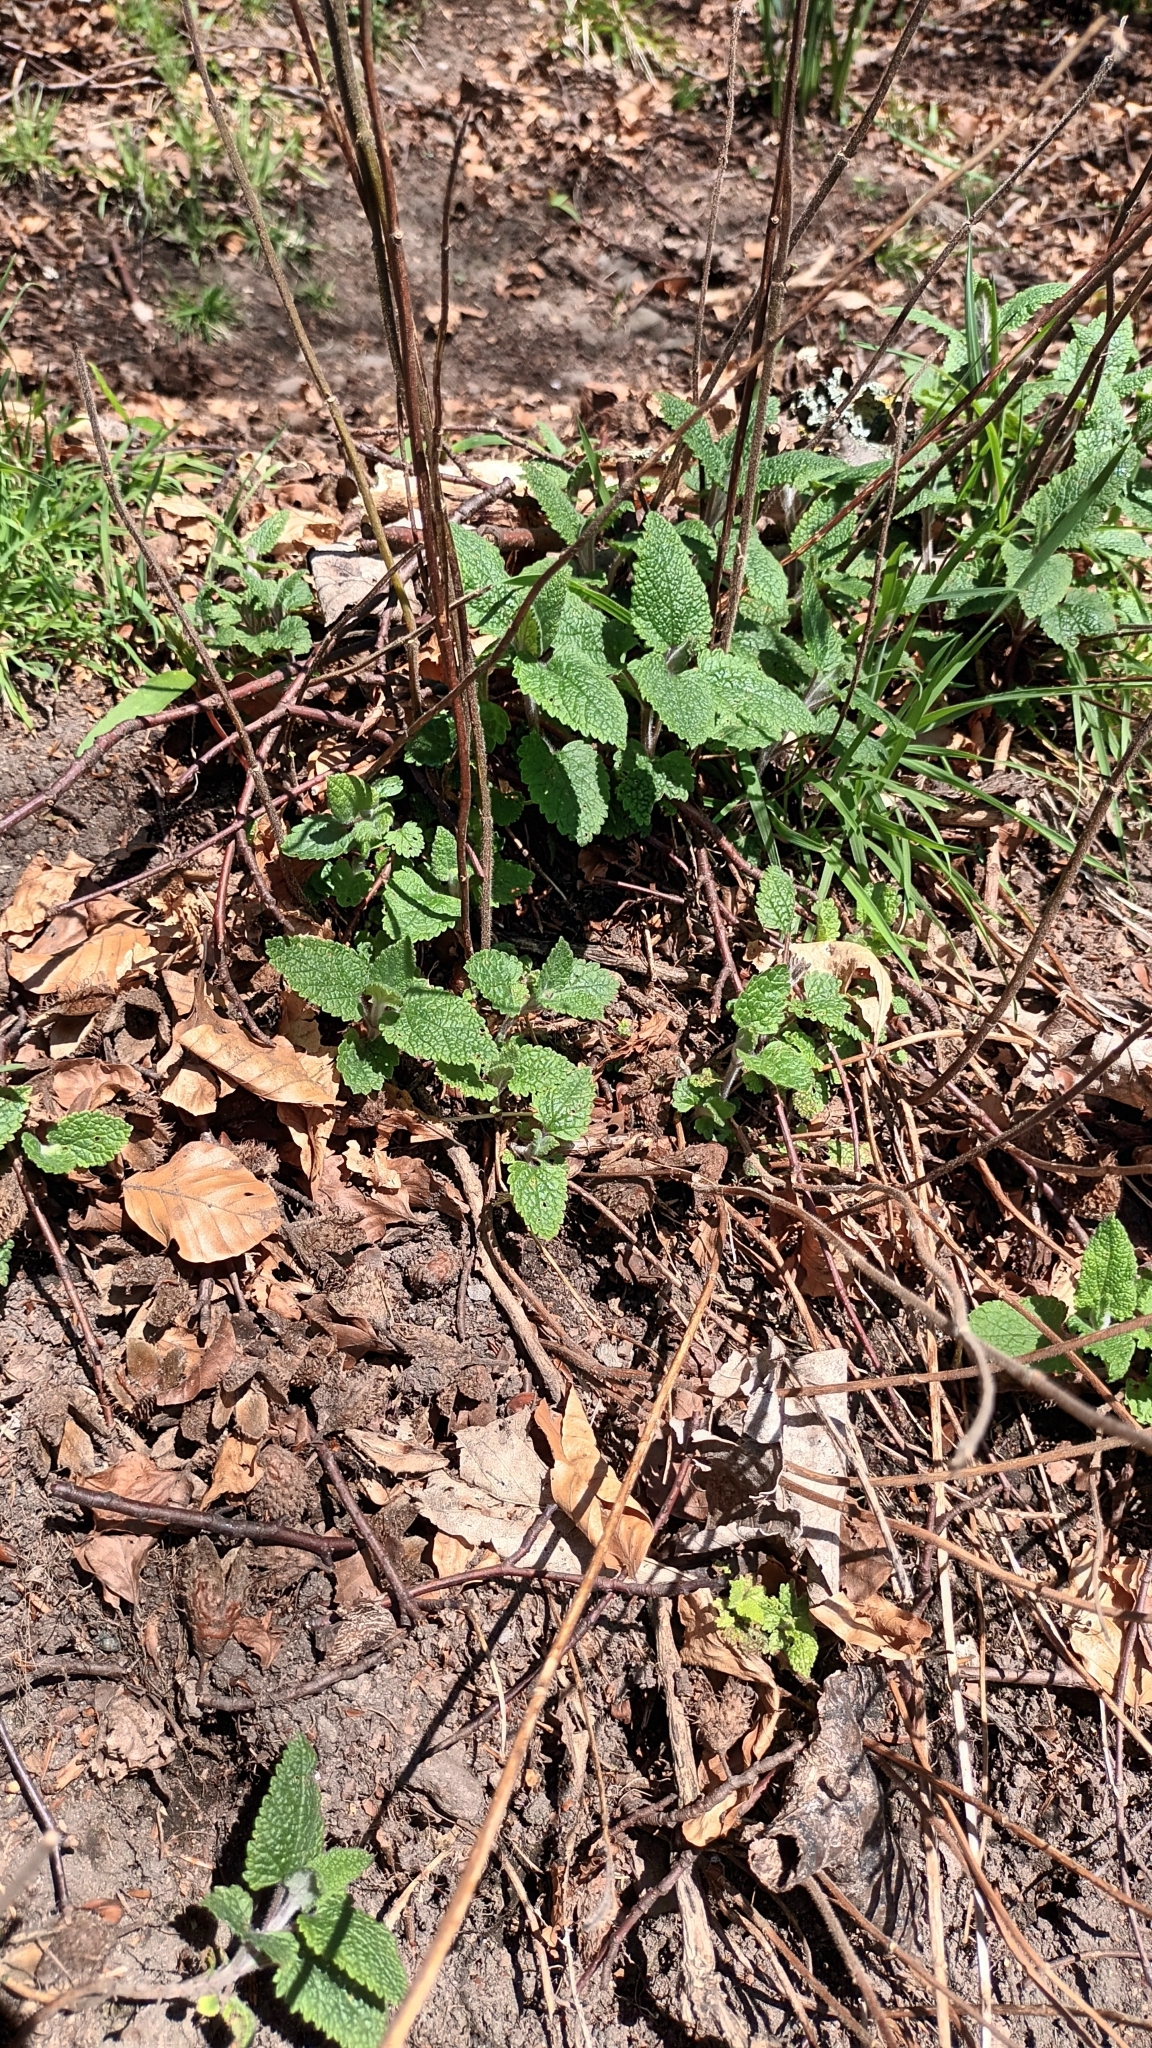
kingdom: Plantae
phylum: Tracheophyta
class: Magnoliopsida
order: Lamiales
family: Lamiaceae
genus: Teucrium
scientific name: Teucrium scorodonia
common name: Woodland germander
